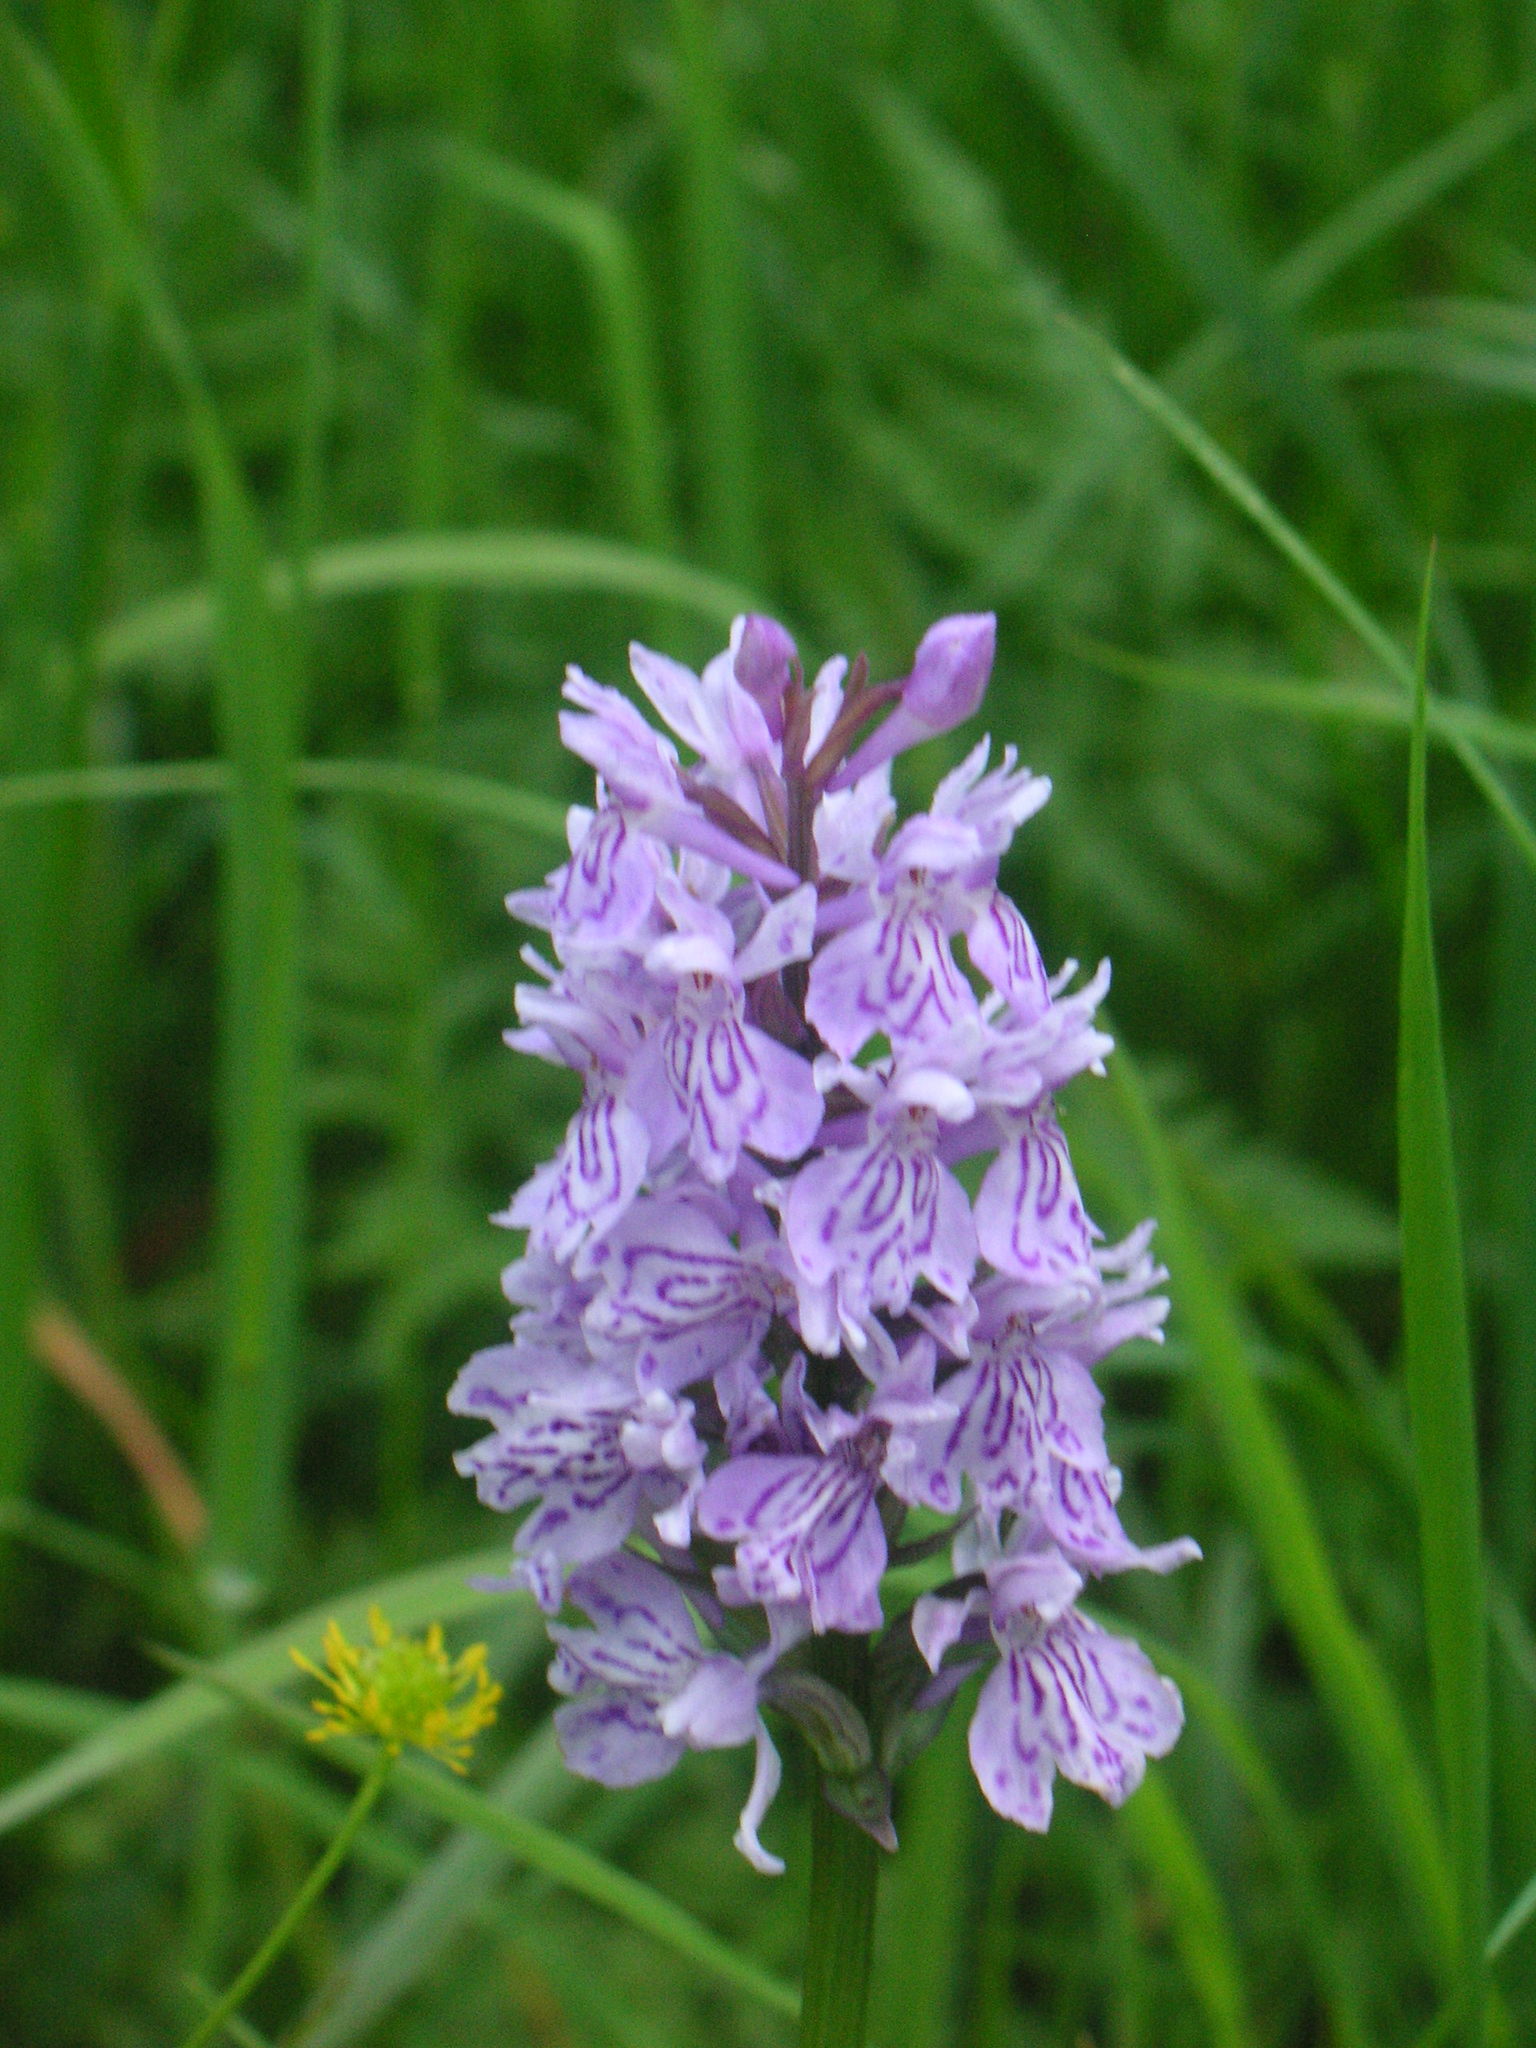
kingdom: Plantae
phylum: Tracheophyta
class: Liliopsida
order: Asparagales
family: Orchidaceae
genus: Dactylorhiza
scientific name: Dactylorhiza maculata
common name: Heath spotted-orchid
